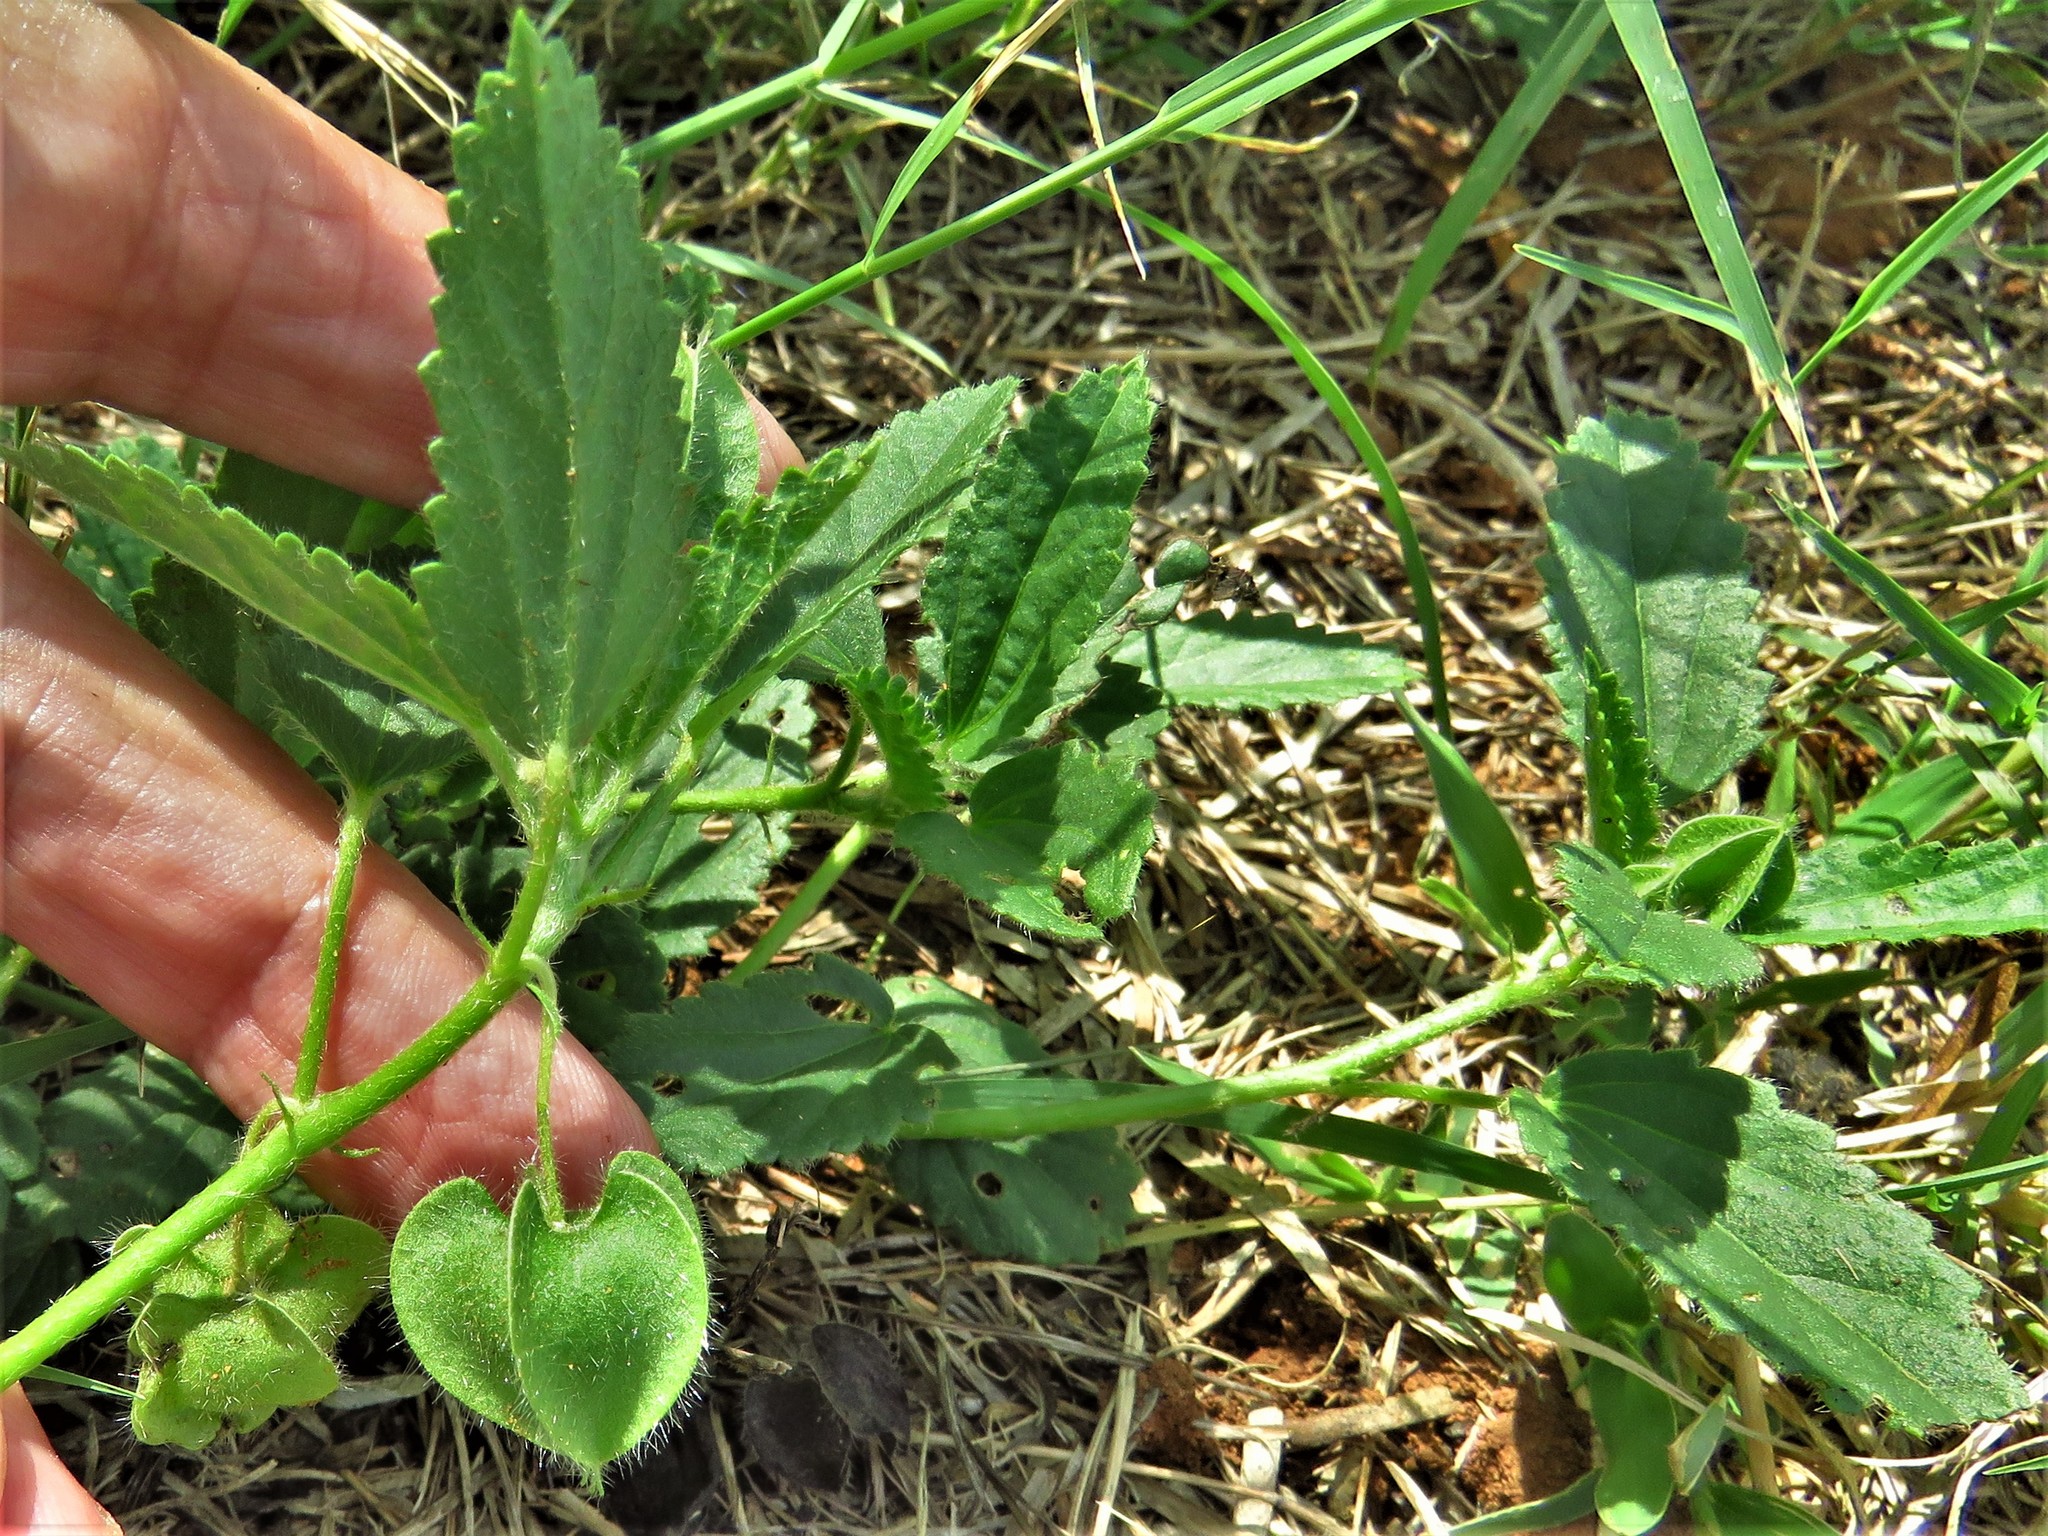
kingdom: Plantae
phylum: Tracheophyta
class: Magnoliopsida
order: Malvales
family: Malvaceae
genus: Rhynchosida
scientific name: Rhynchosida physocalyx
